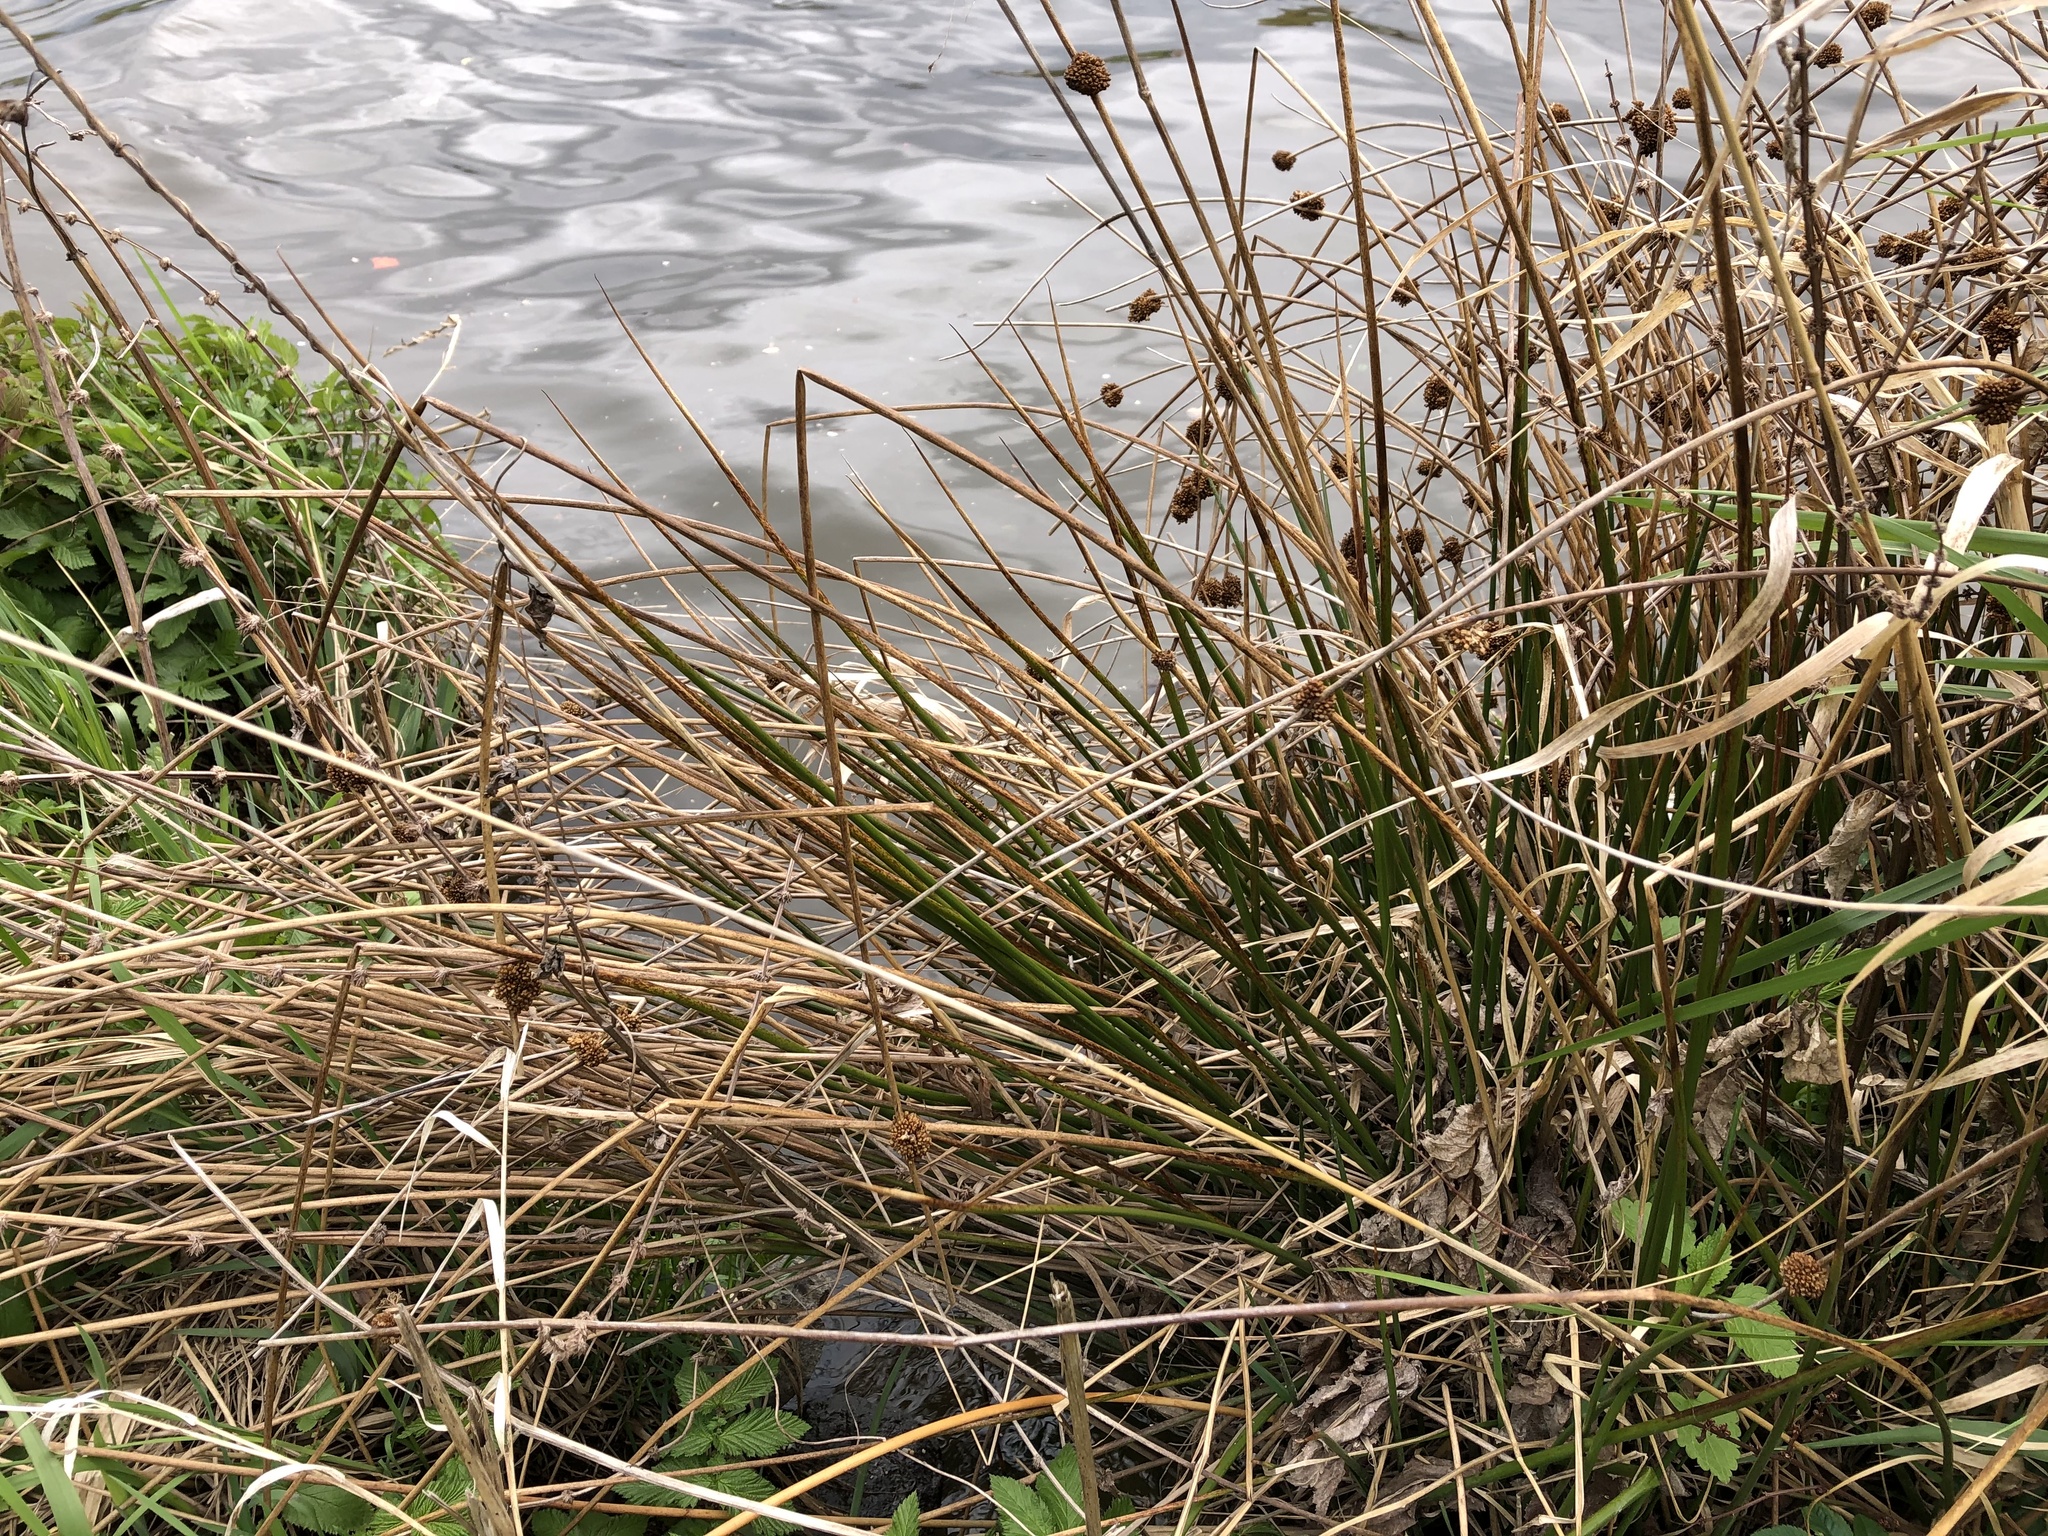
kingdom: Plantae
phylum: Tracheophyta
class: Liliopsida
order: Poales
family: Juncaceae
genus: Juncus
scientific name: Juncus effusus
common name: Soft rush
